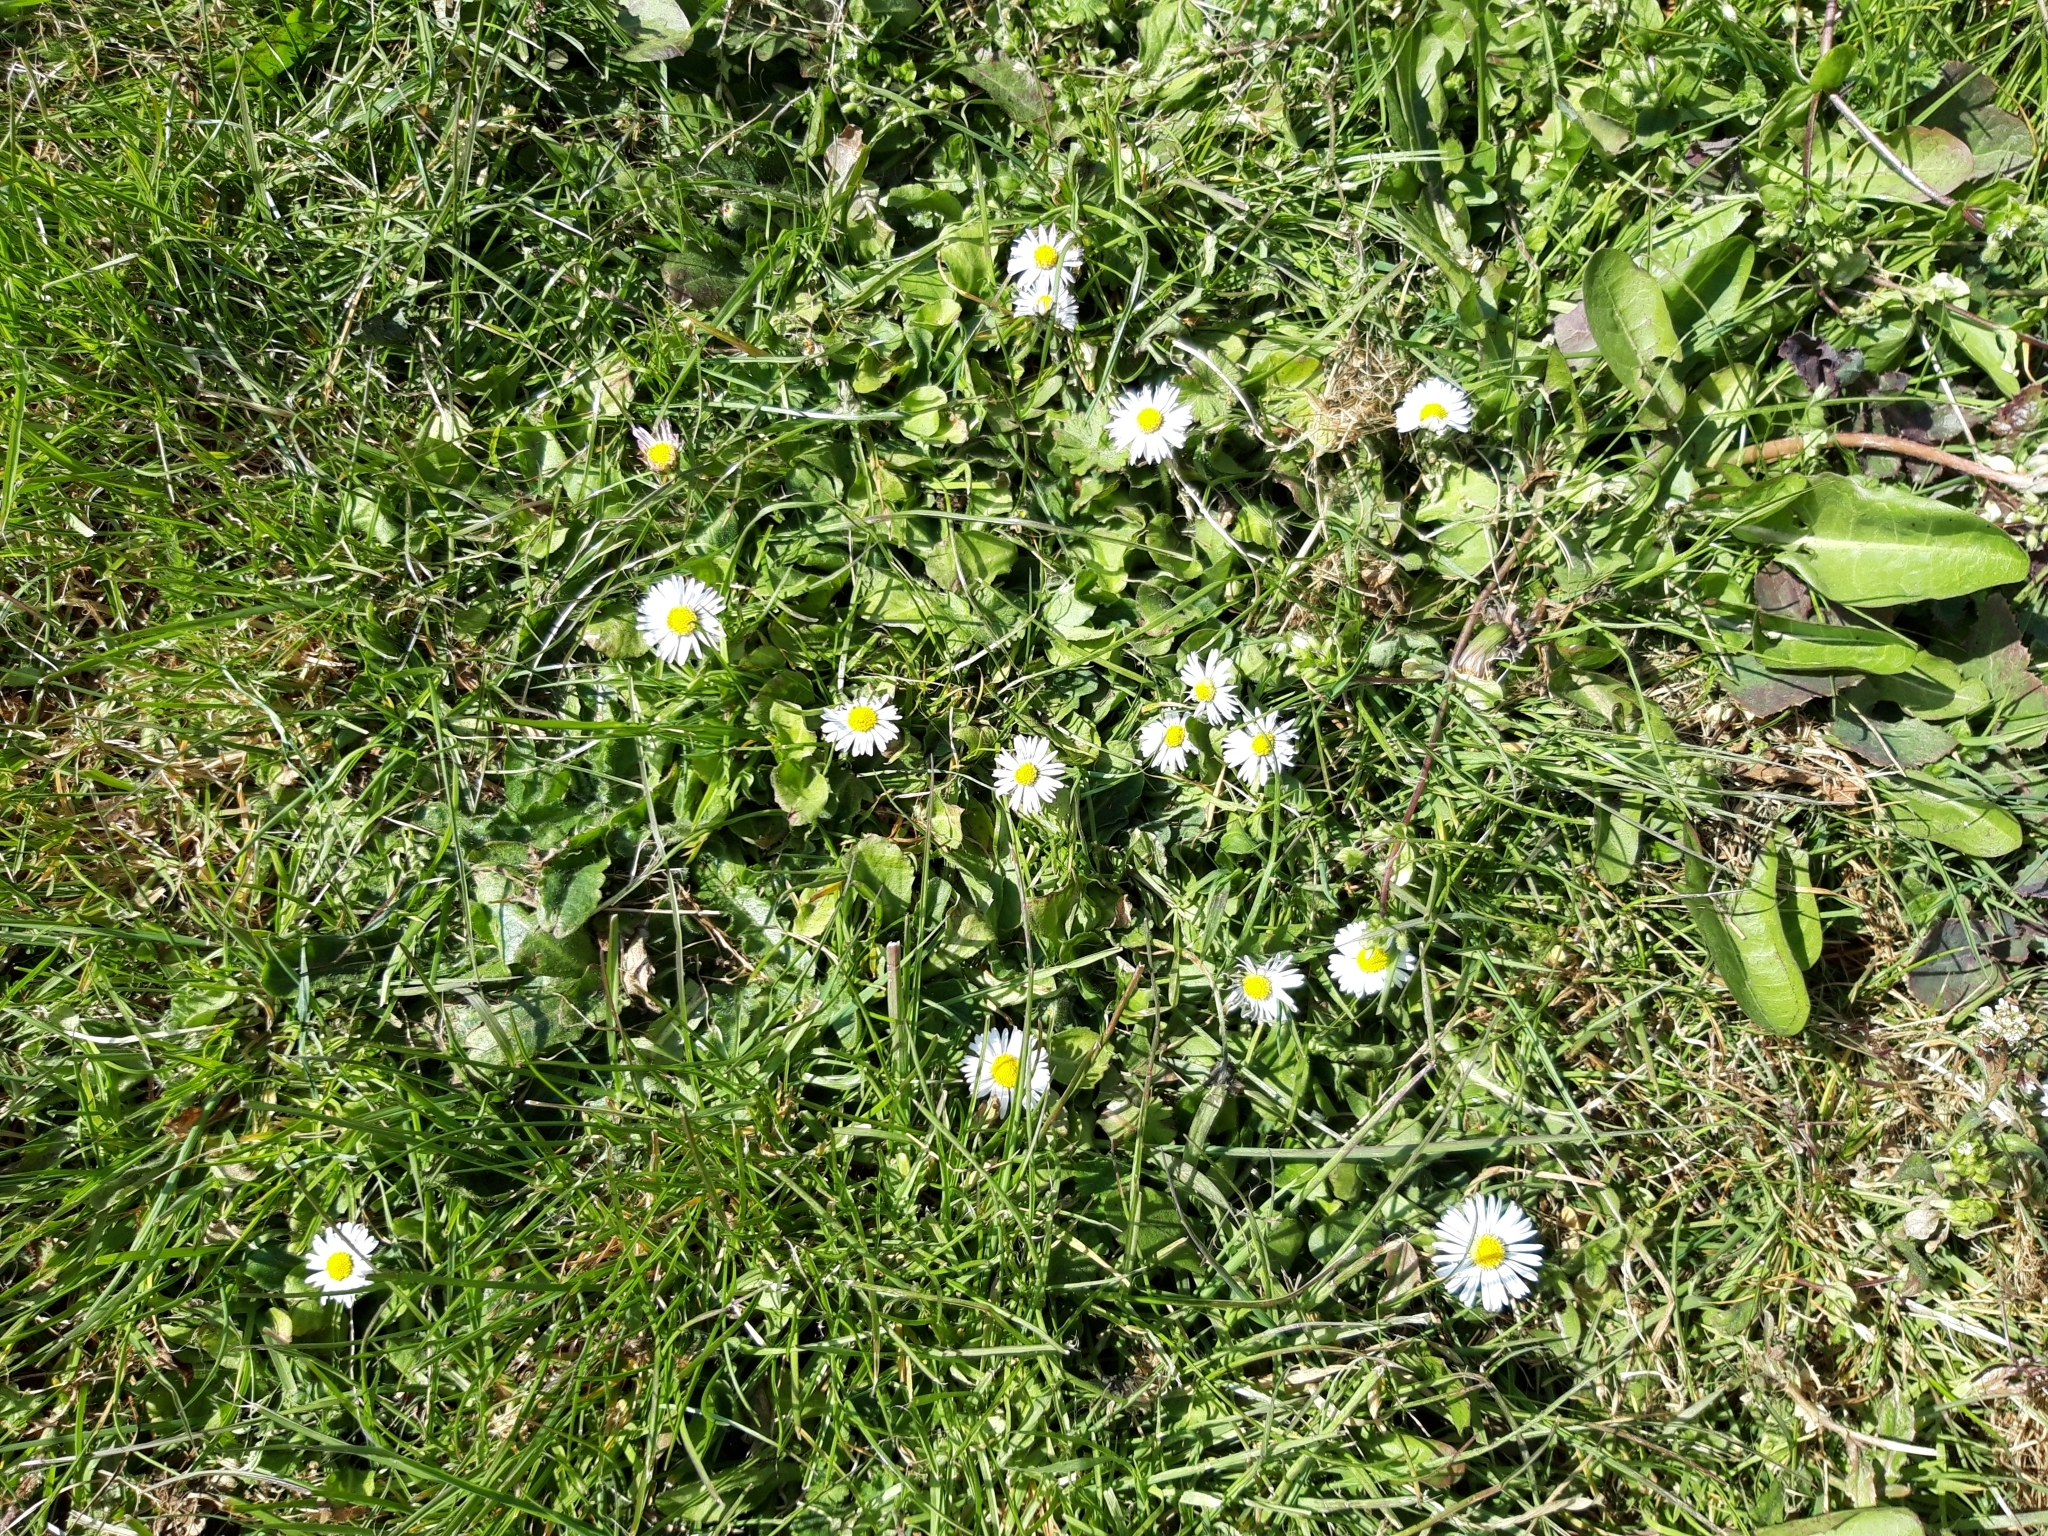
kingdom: Plantae
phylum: Tracheophyta
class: Magnoliopsida
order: Asterales
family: Asteraceae
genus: Bellis
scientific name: Bellis perennis
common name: Lawndaisy
